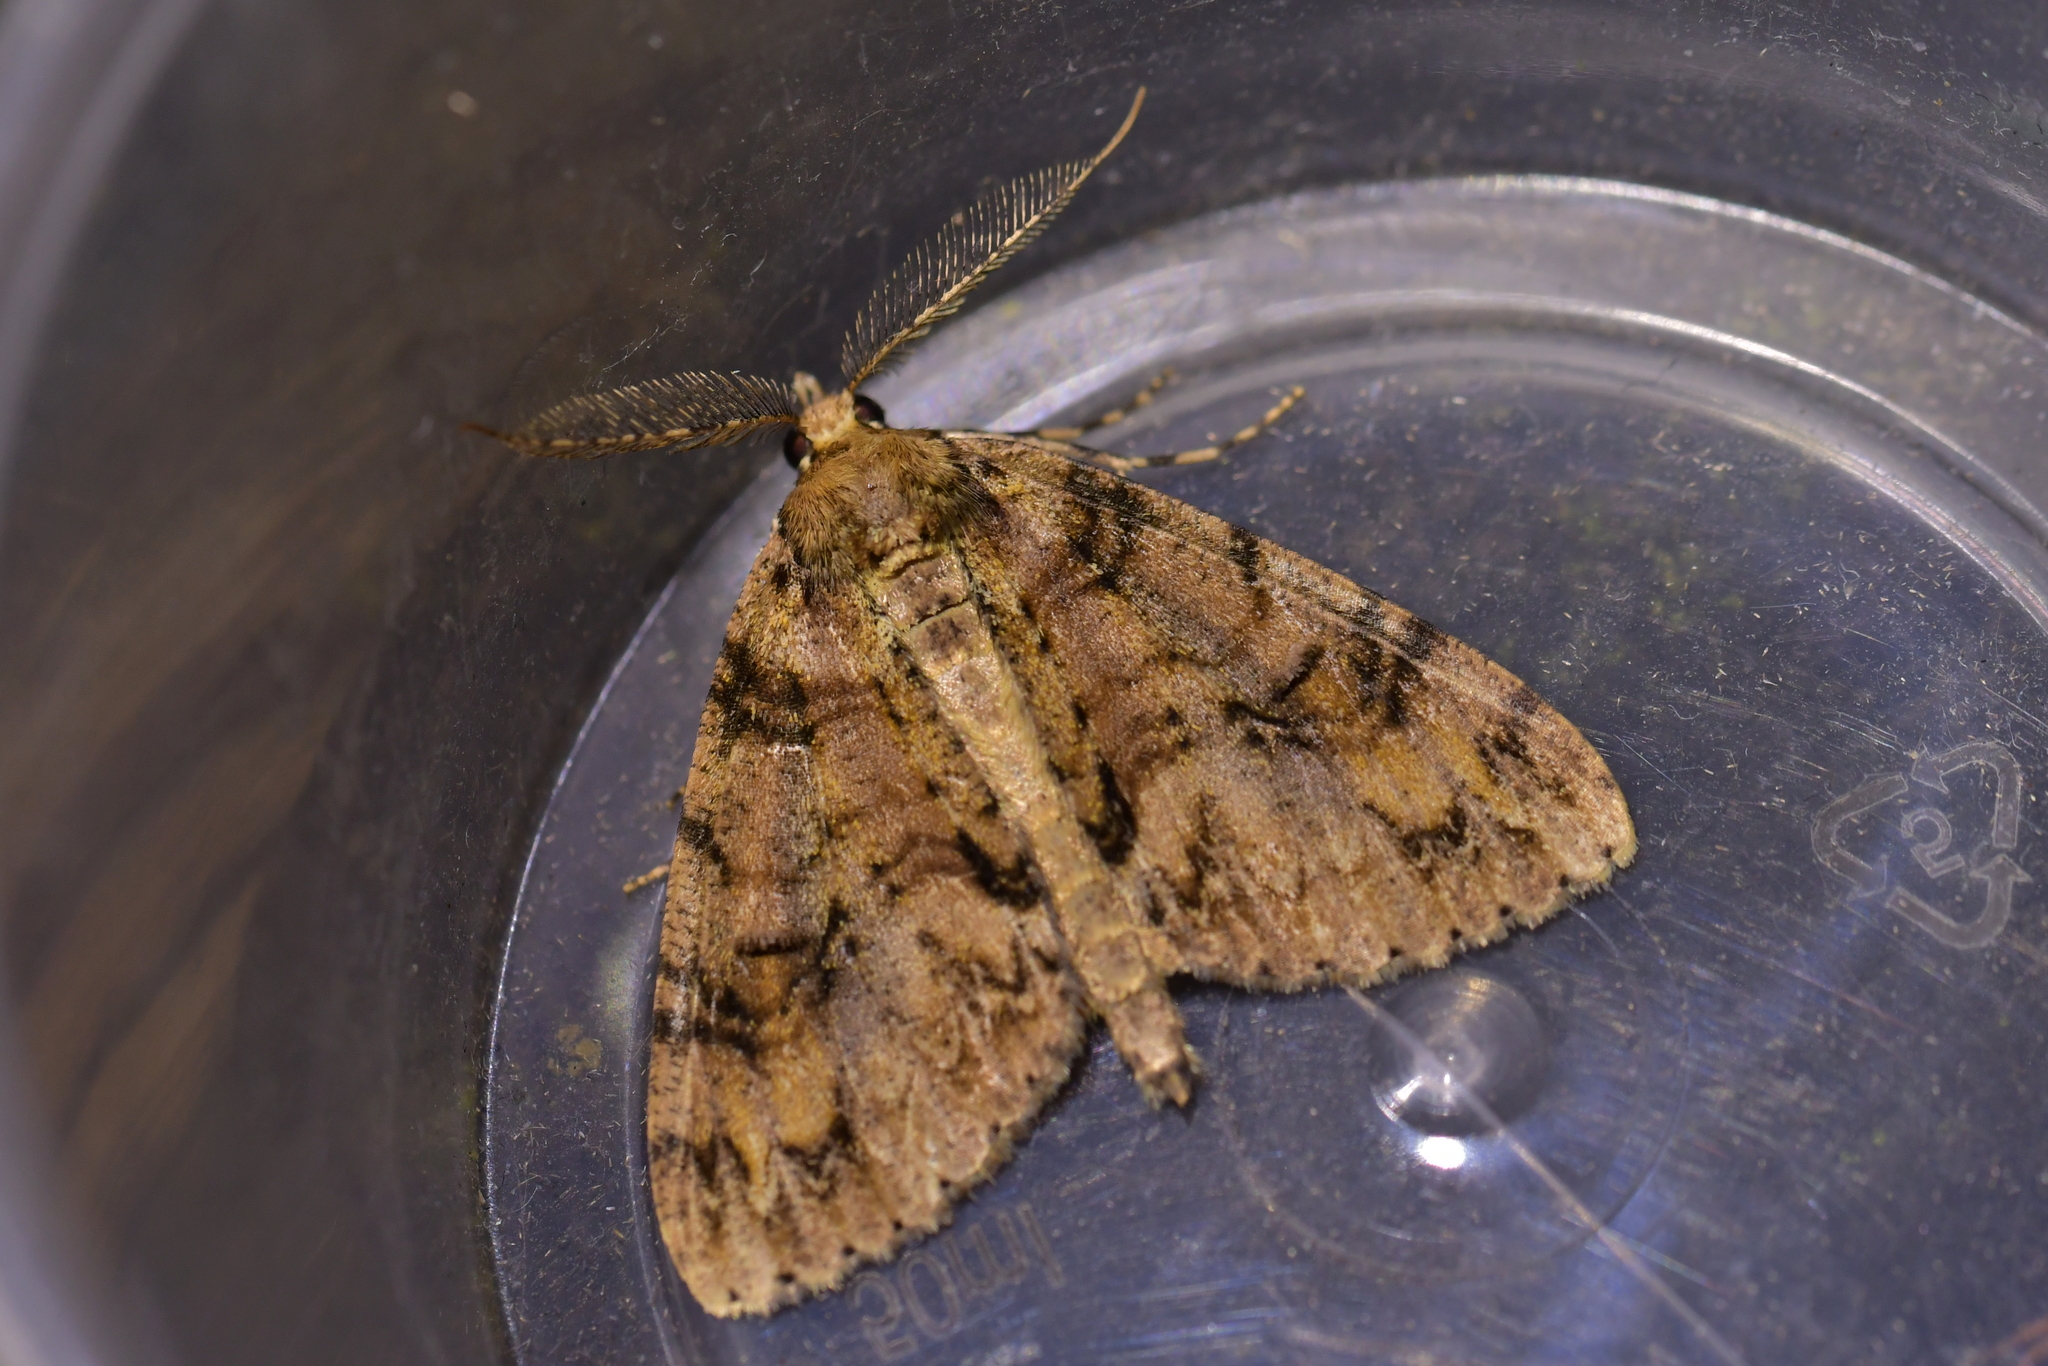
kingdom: Animalia
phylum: Arthropoda
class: Insecta
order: Lepidoptera
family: Geometridae
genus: Pseudocoremia
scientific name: Pseudocoremia suavis
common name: Common forest looper
